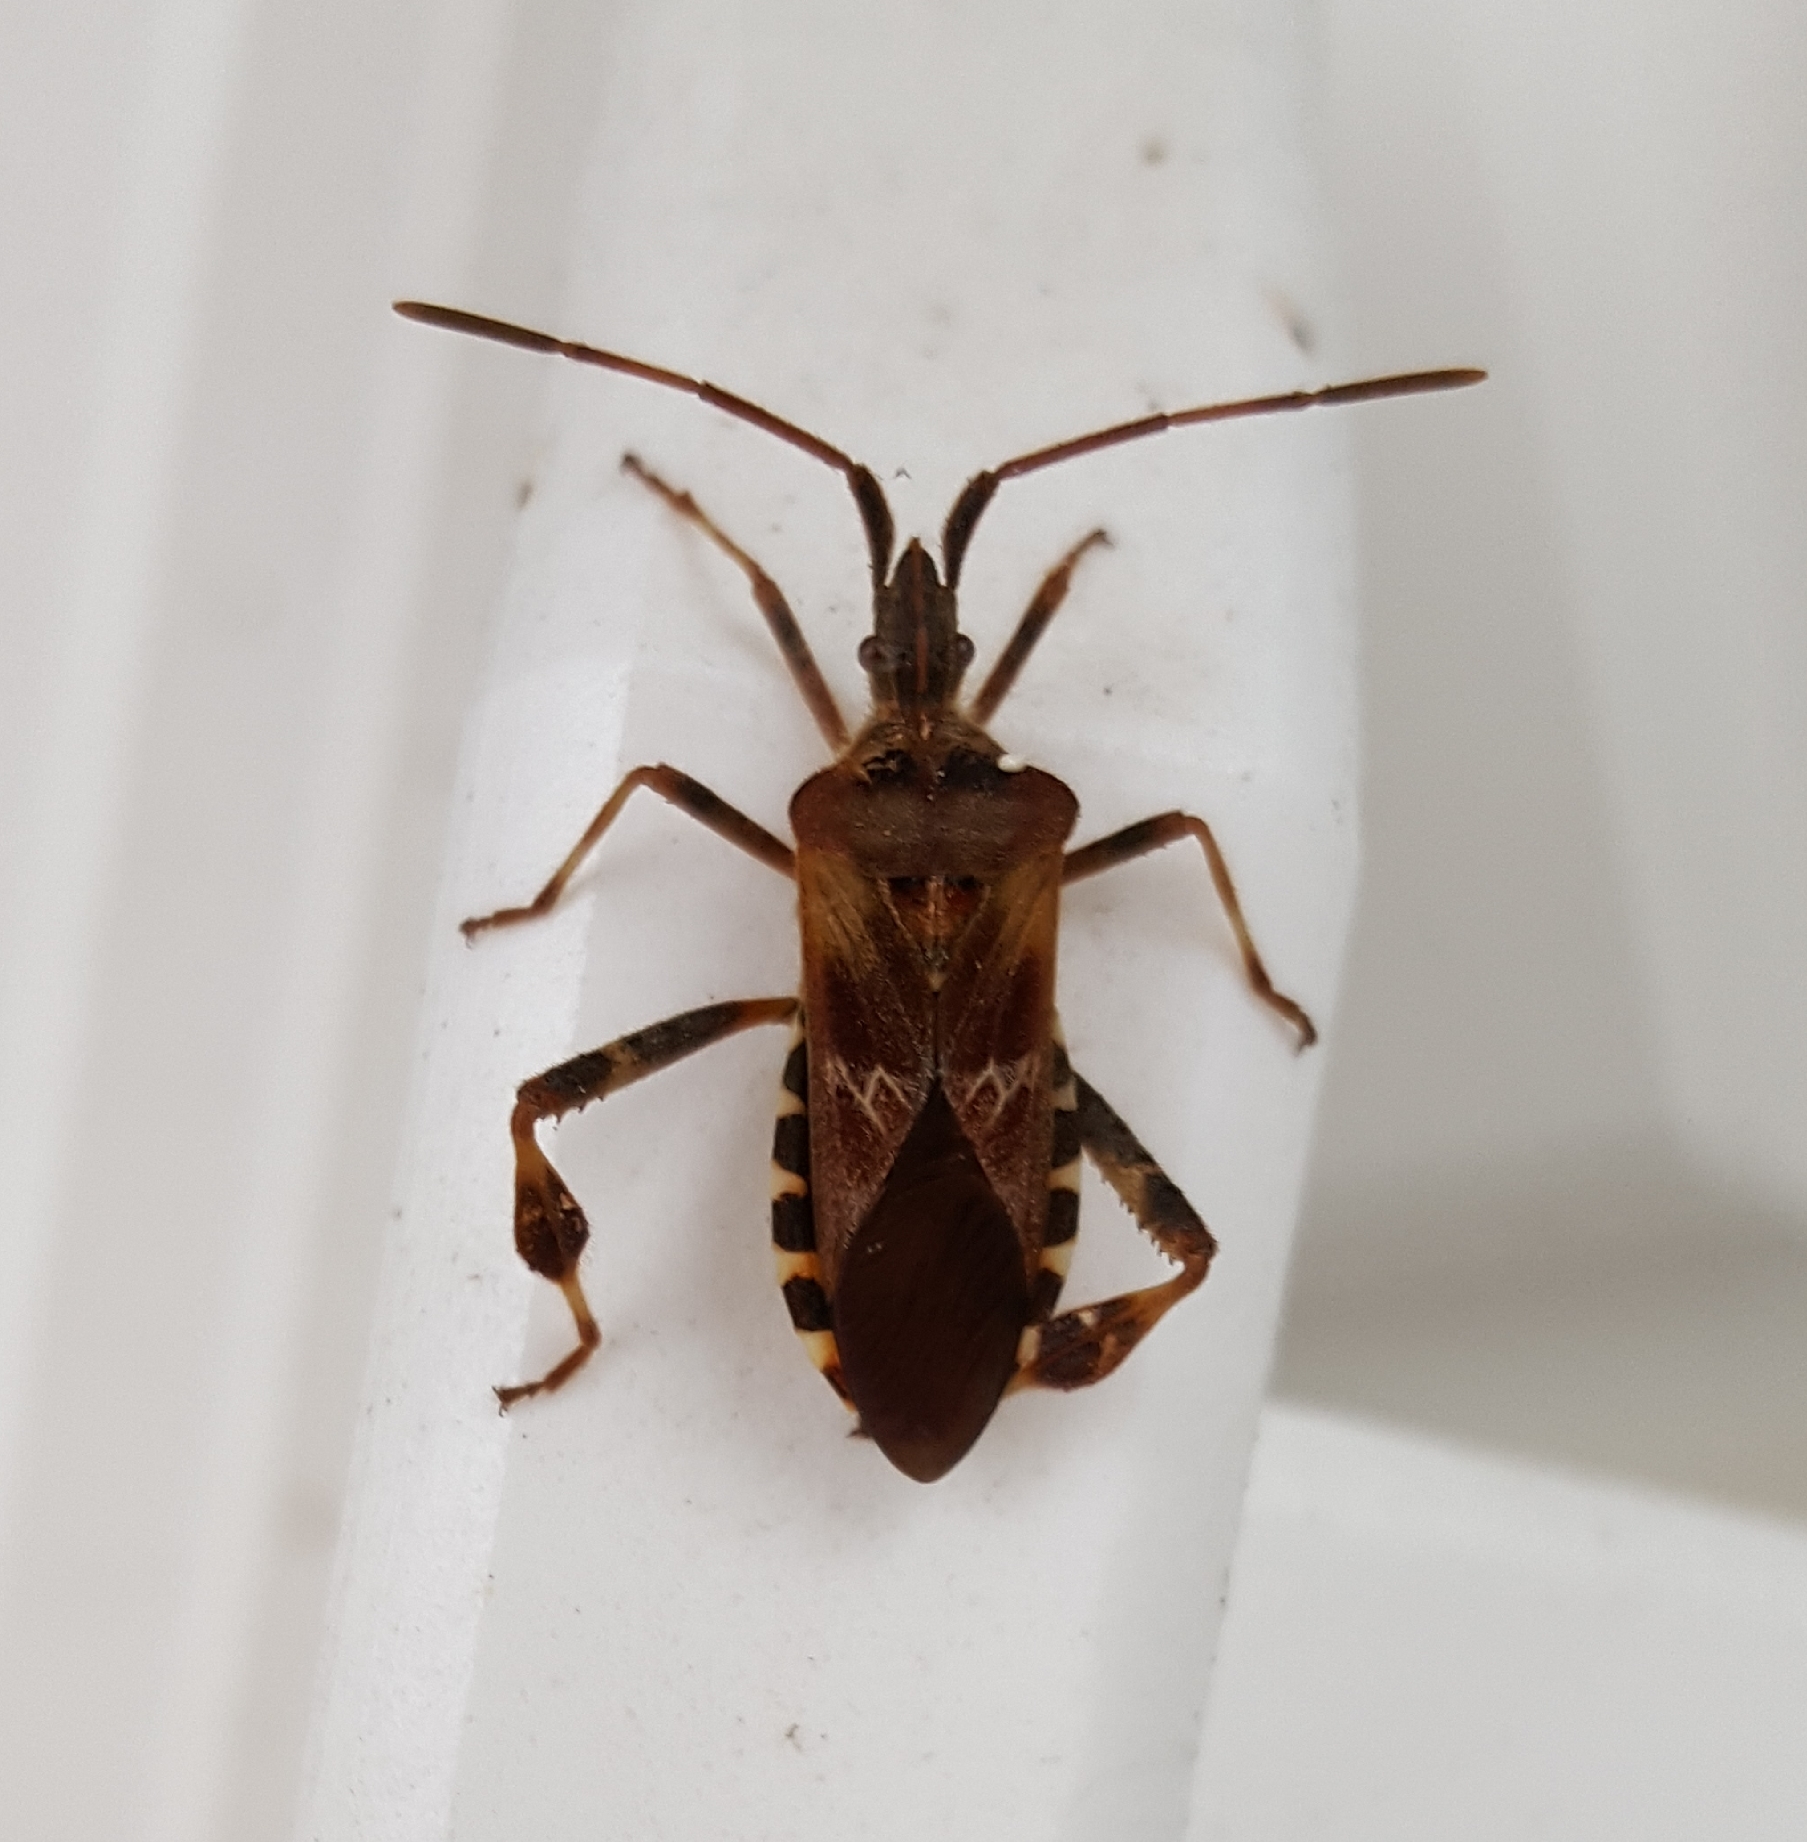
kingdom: Animalia
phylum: Arthropoda
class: Insecta
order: Hemiptera
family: Coreidae
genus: Leptoglossus
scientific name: Leptoglossus occidentalis
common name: Western conifer-seed bug
